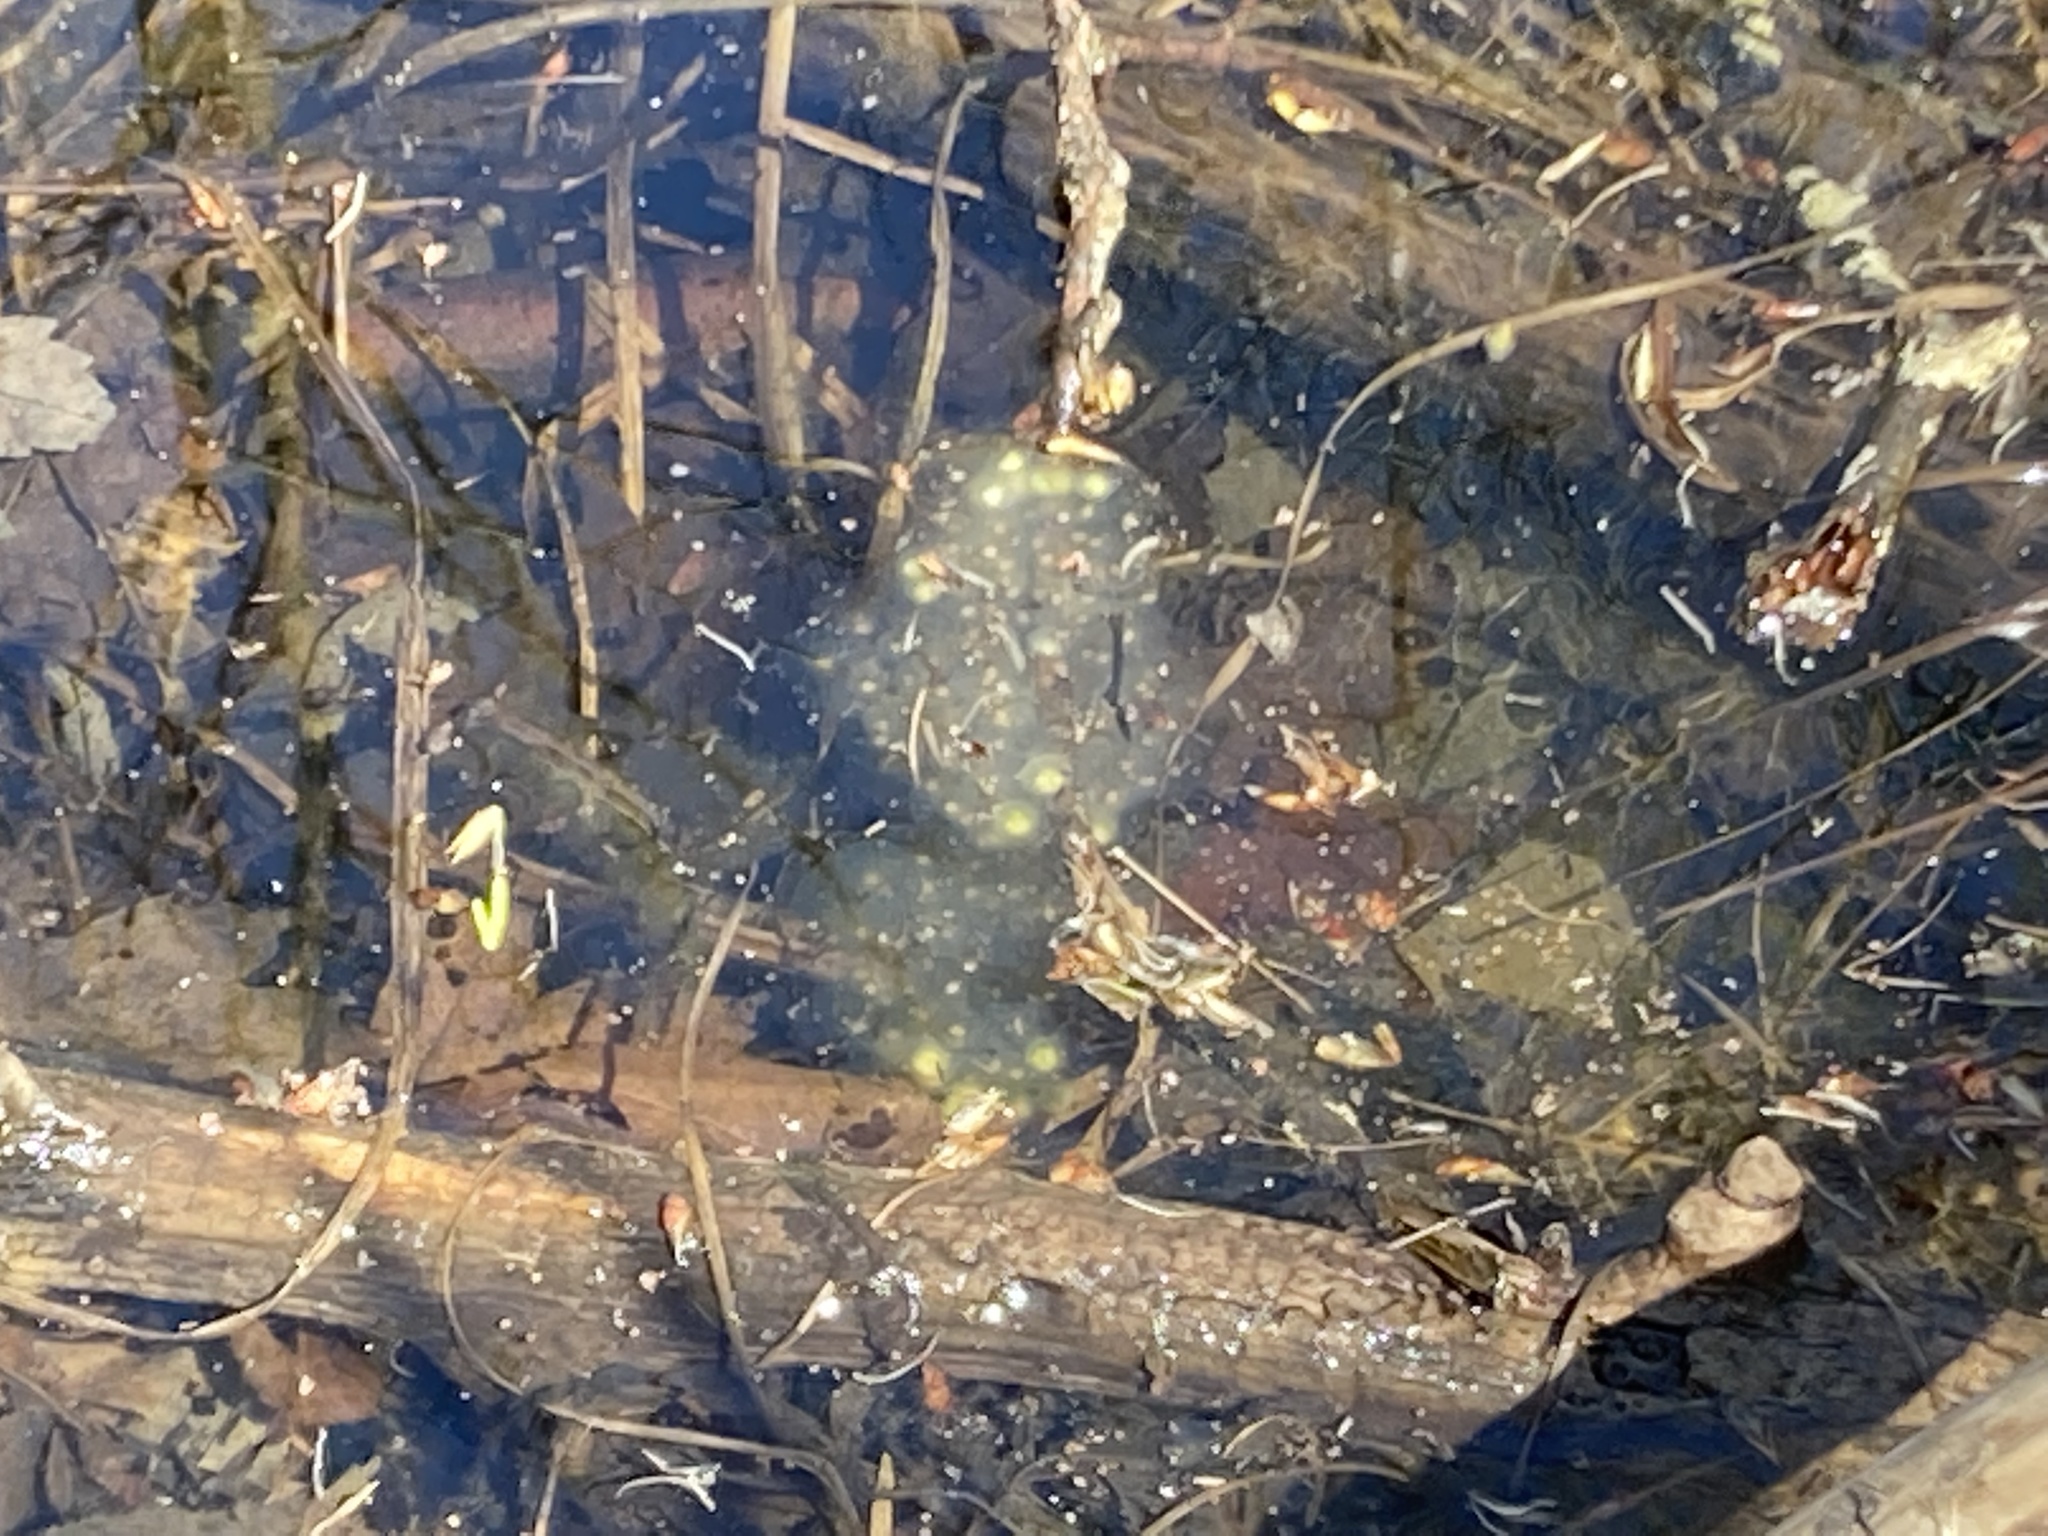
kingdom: Animalia
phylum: Chordata
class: Amphibia
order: Caudata
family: Ambystomatidae
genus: Ambystoma
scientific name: Ambystoma maculatum
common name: Spotted salamander
